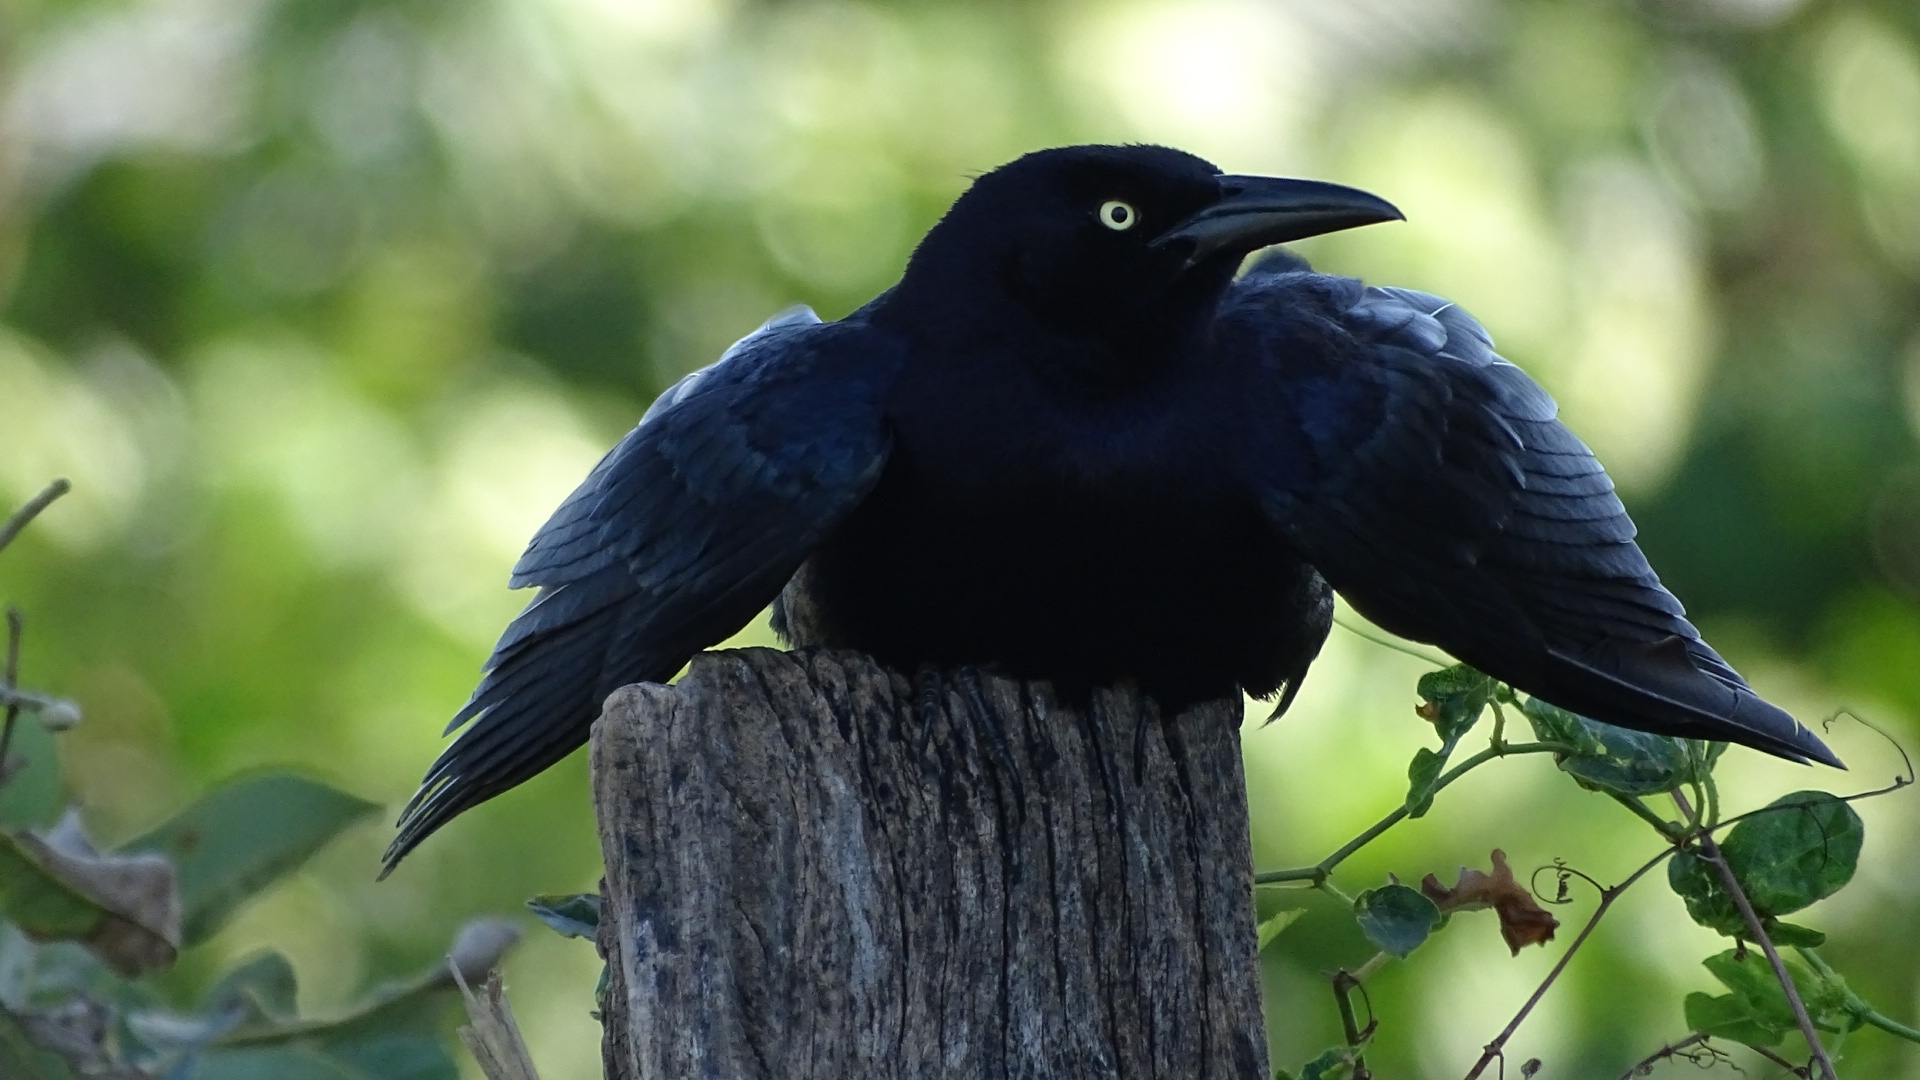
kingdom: Animalia
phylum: Chordata
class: Aves
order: Passeriformes
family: Icteridae
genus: Quiscalus
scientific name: Quiscalus mexicanus
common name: Great-tailed grackle
